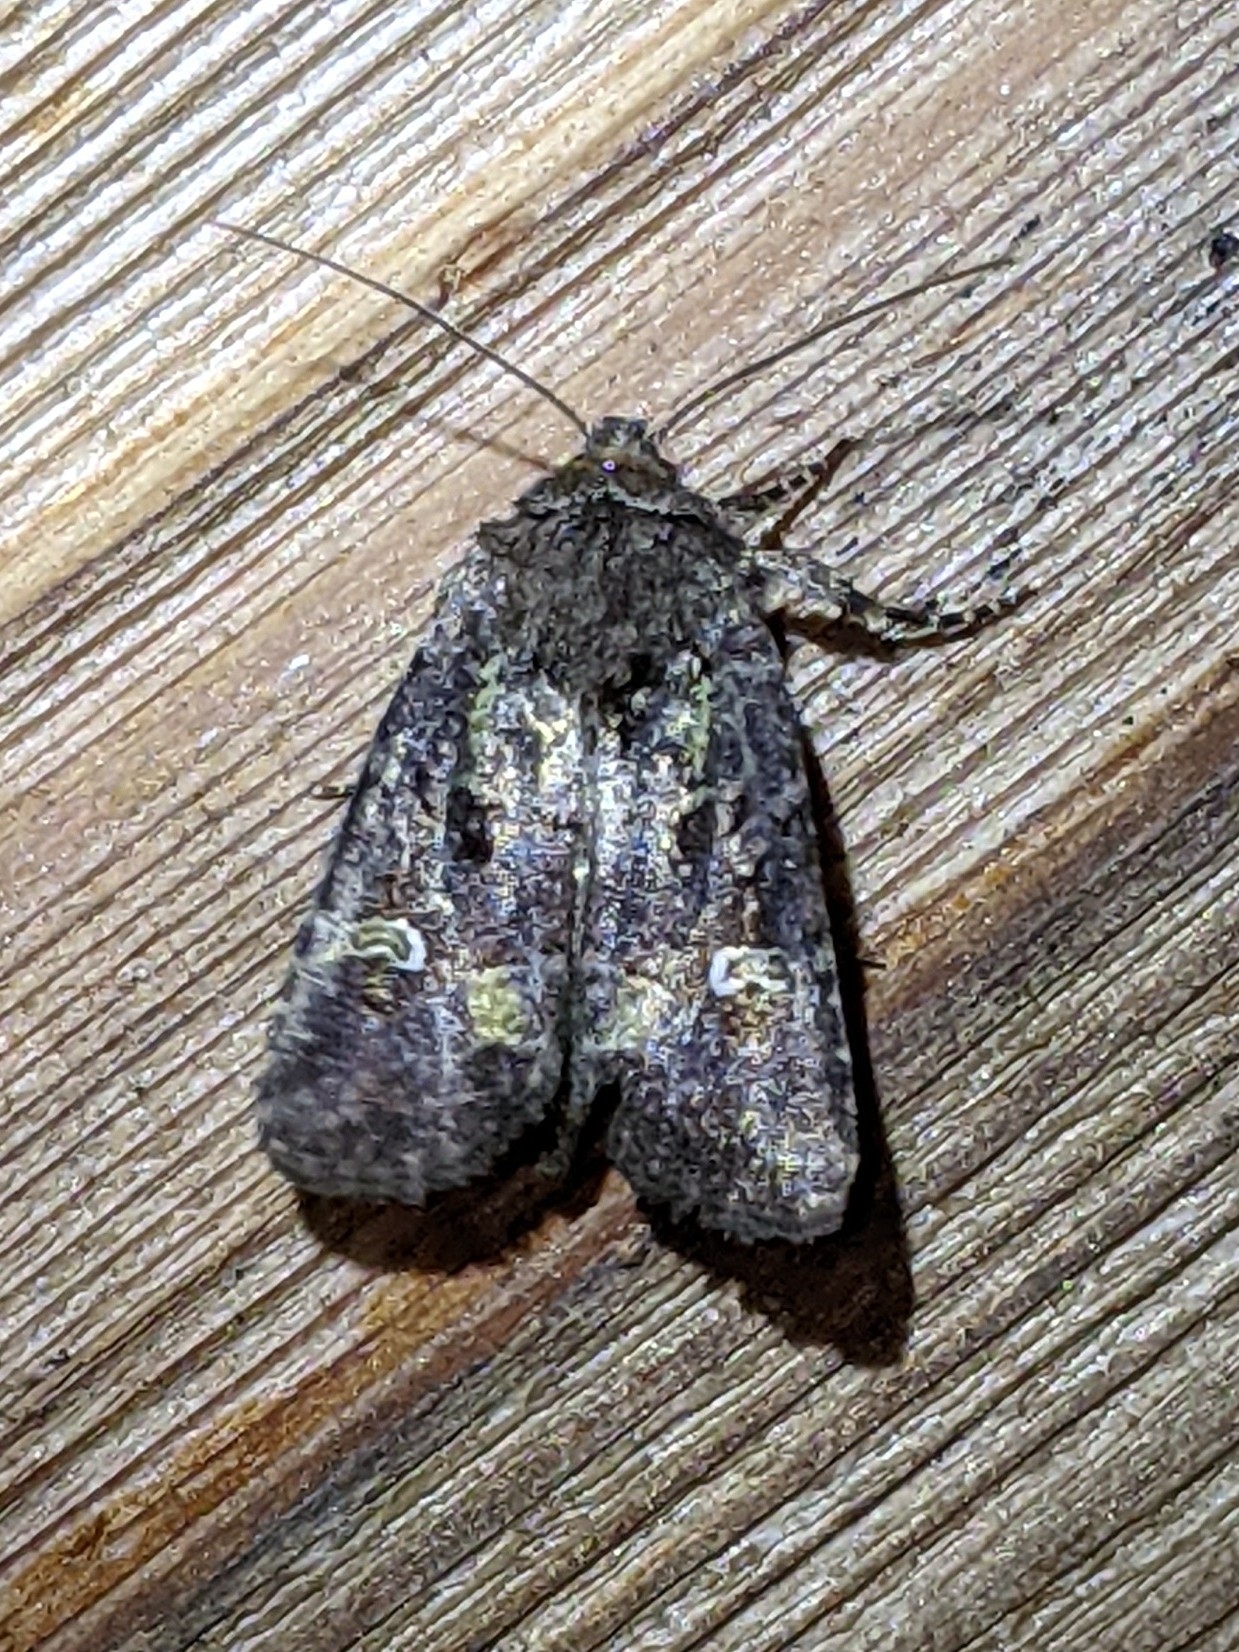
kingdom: Animalia
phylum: Arthropoda
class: Insecta
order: Lepidoptera
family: Noctuidae
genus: Lacinipolia
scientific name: Lacinipolia renigera
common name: Kidney-spotted minor
